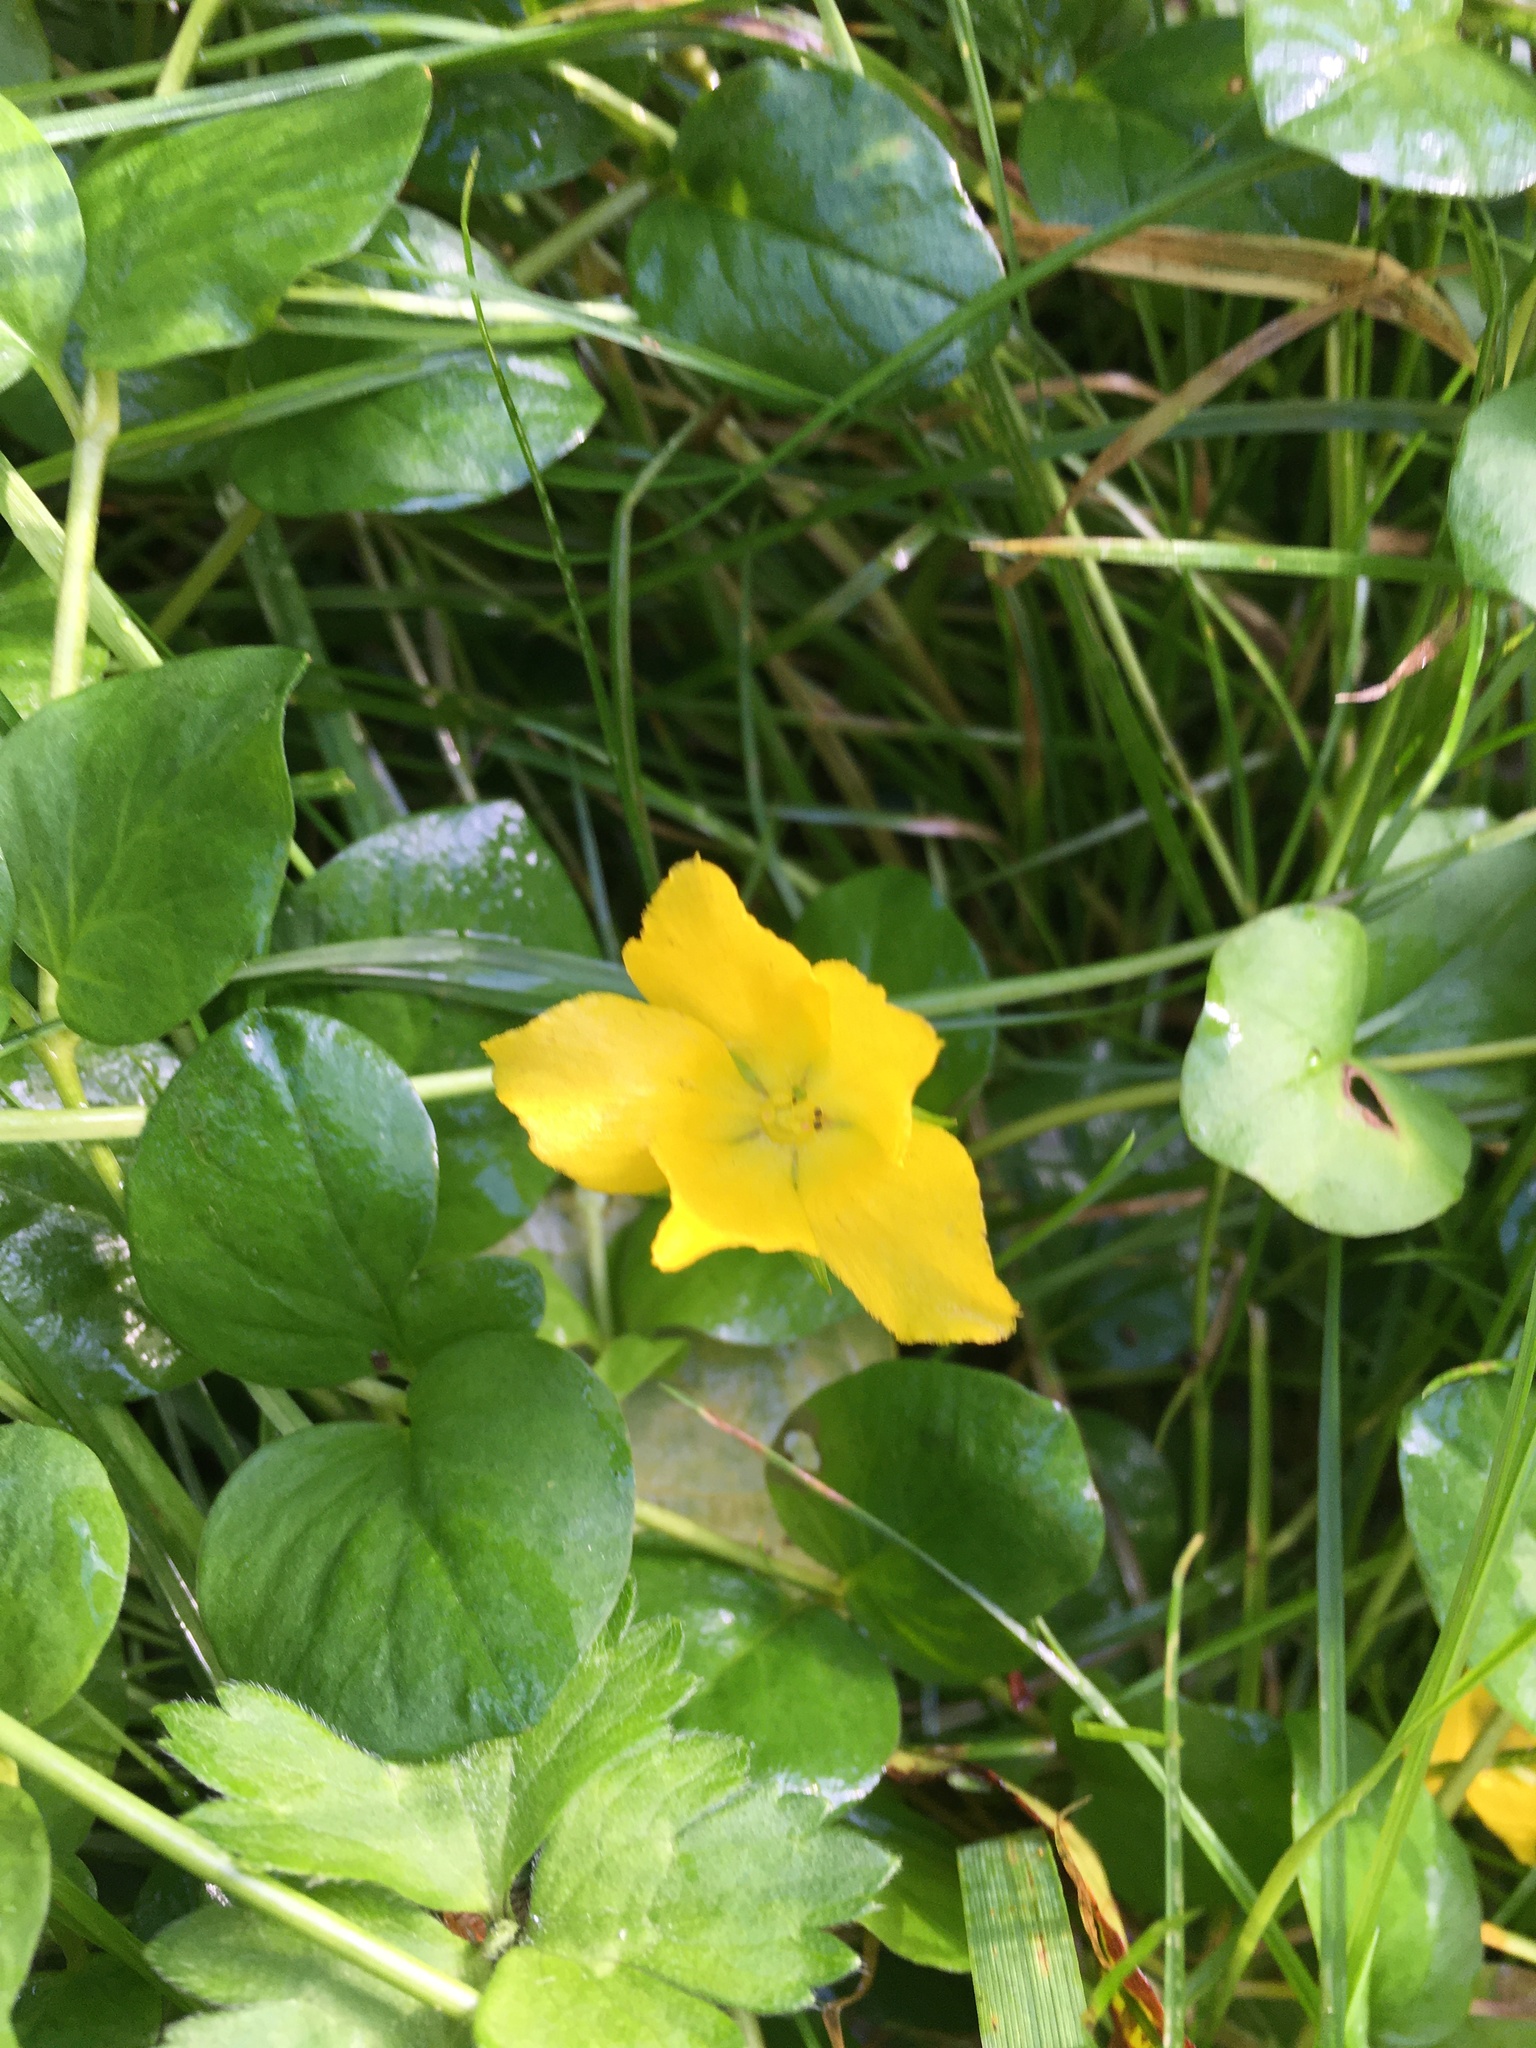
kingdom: Plantae
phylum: Tracheophyta
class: Magnoliopsida
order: Ericales
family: Primulaceae
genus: Lysimachia
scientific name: Lysimachia nummularia
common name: Moneywort
